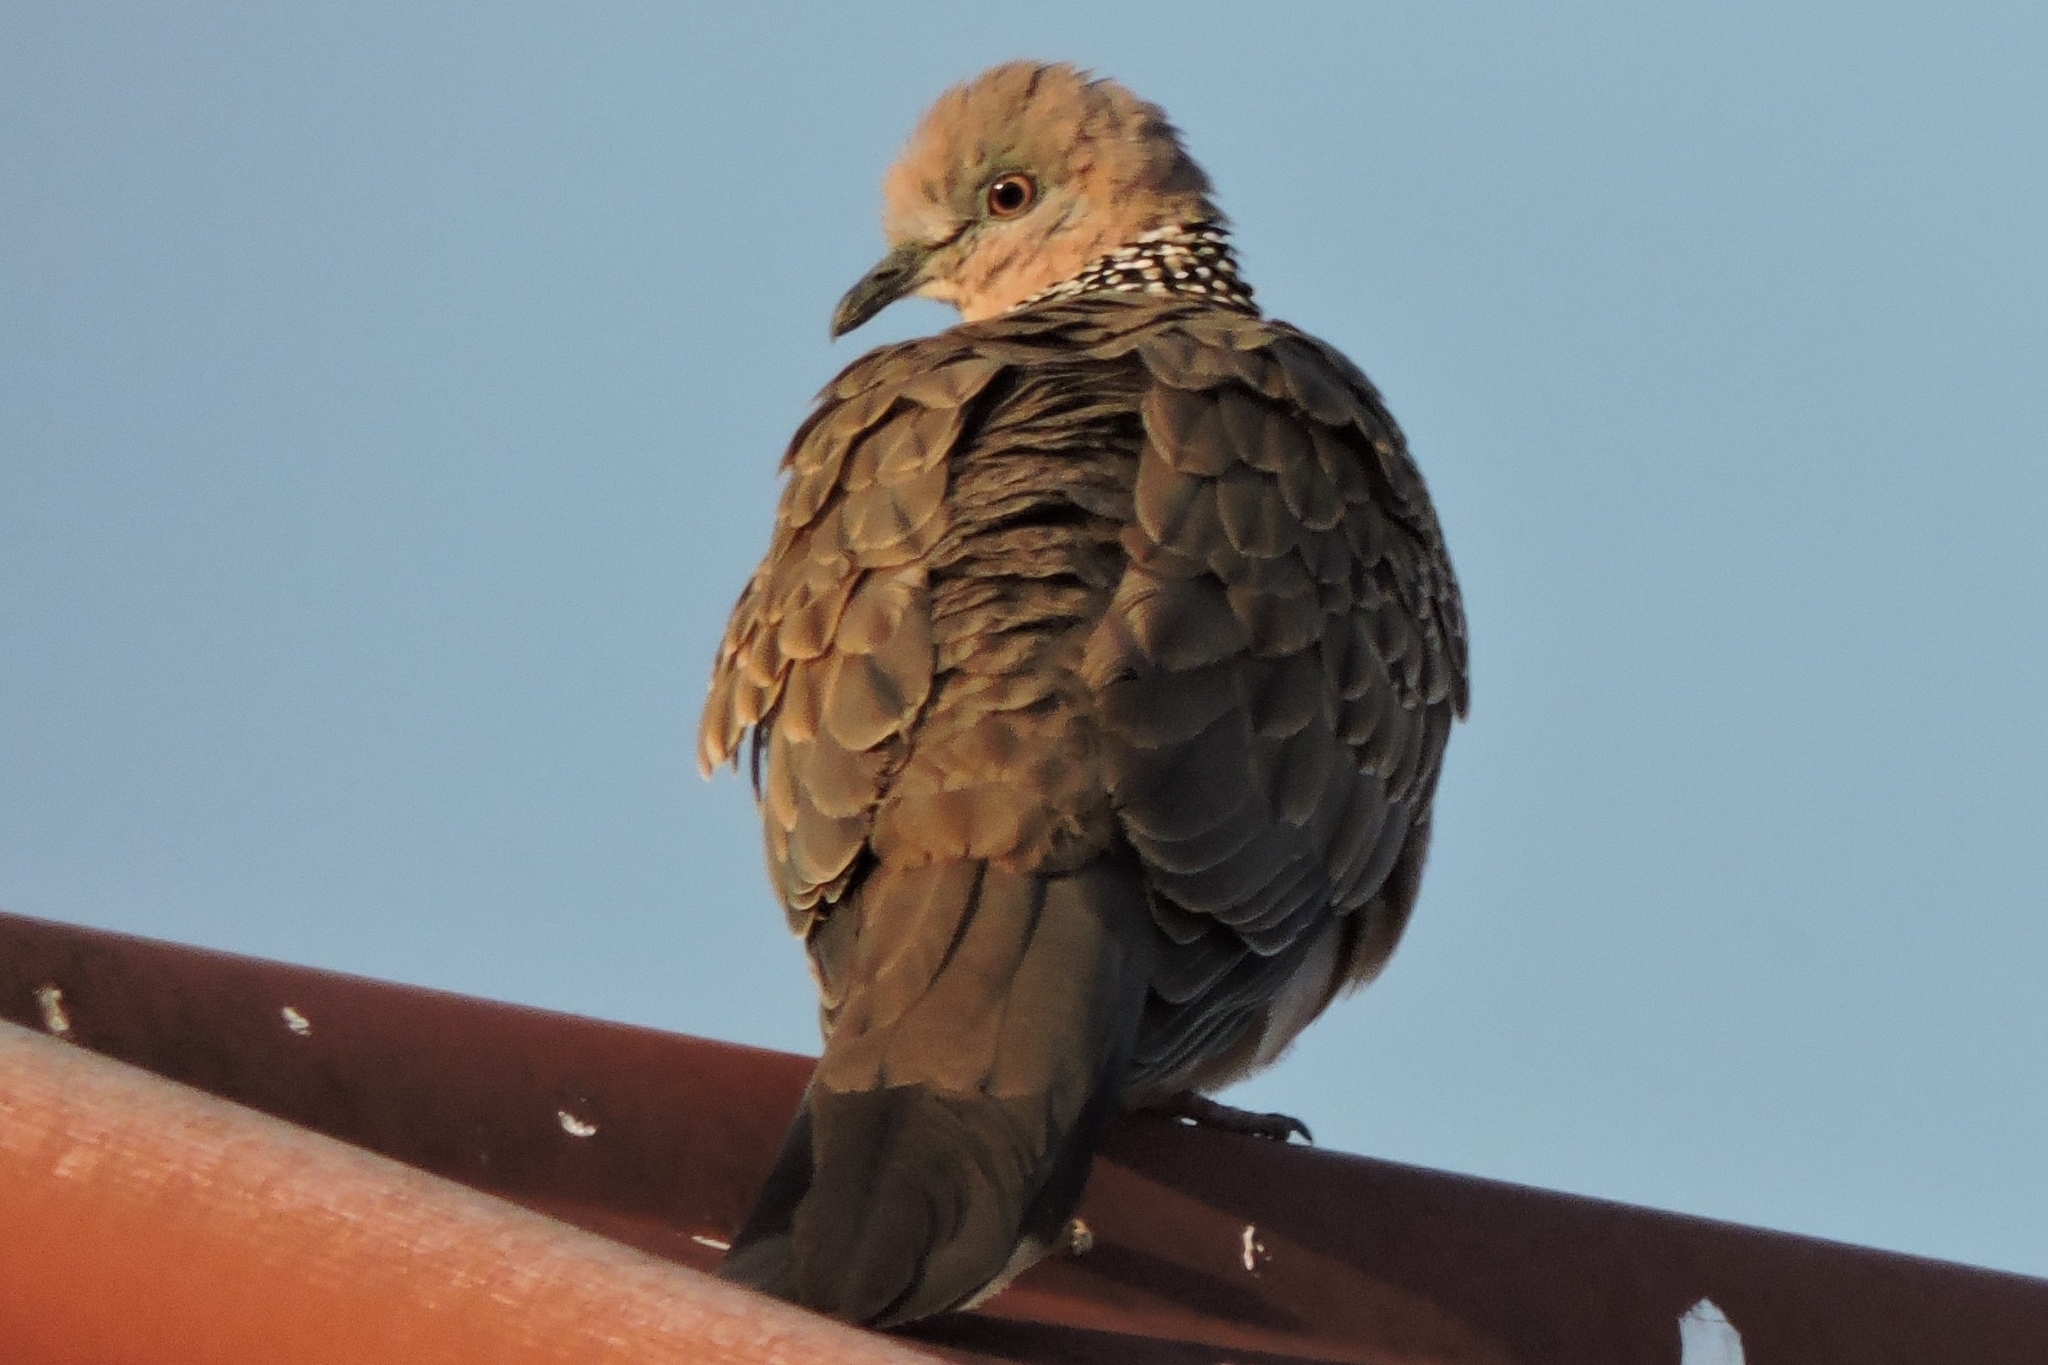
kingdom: Animalia
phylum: Chordata
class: Aves
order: Columbiformes
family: Columbidae
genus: Spilopelia
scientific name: Spilopelia chinensis
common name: Spotted dove
